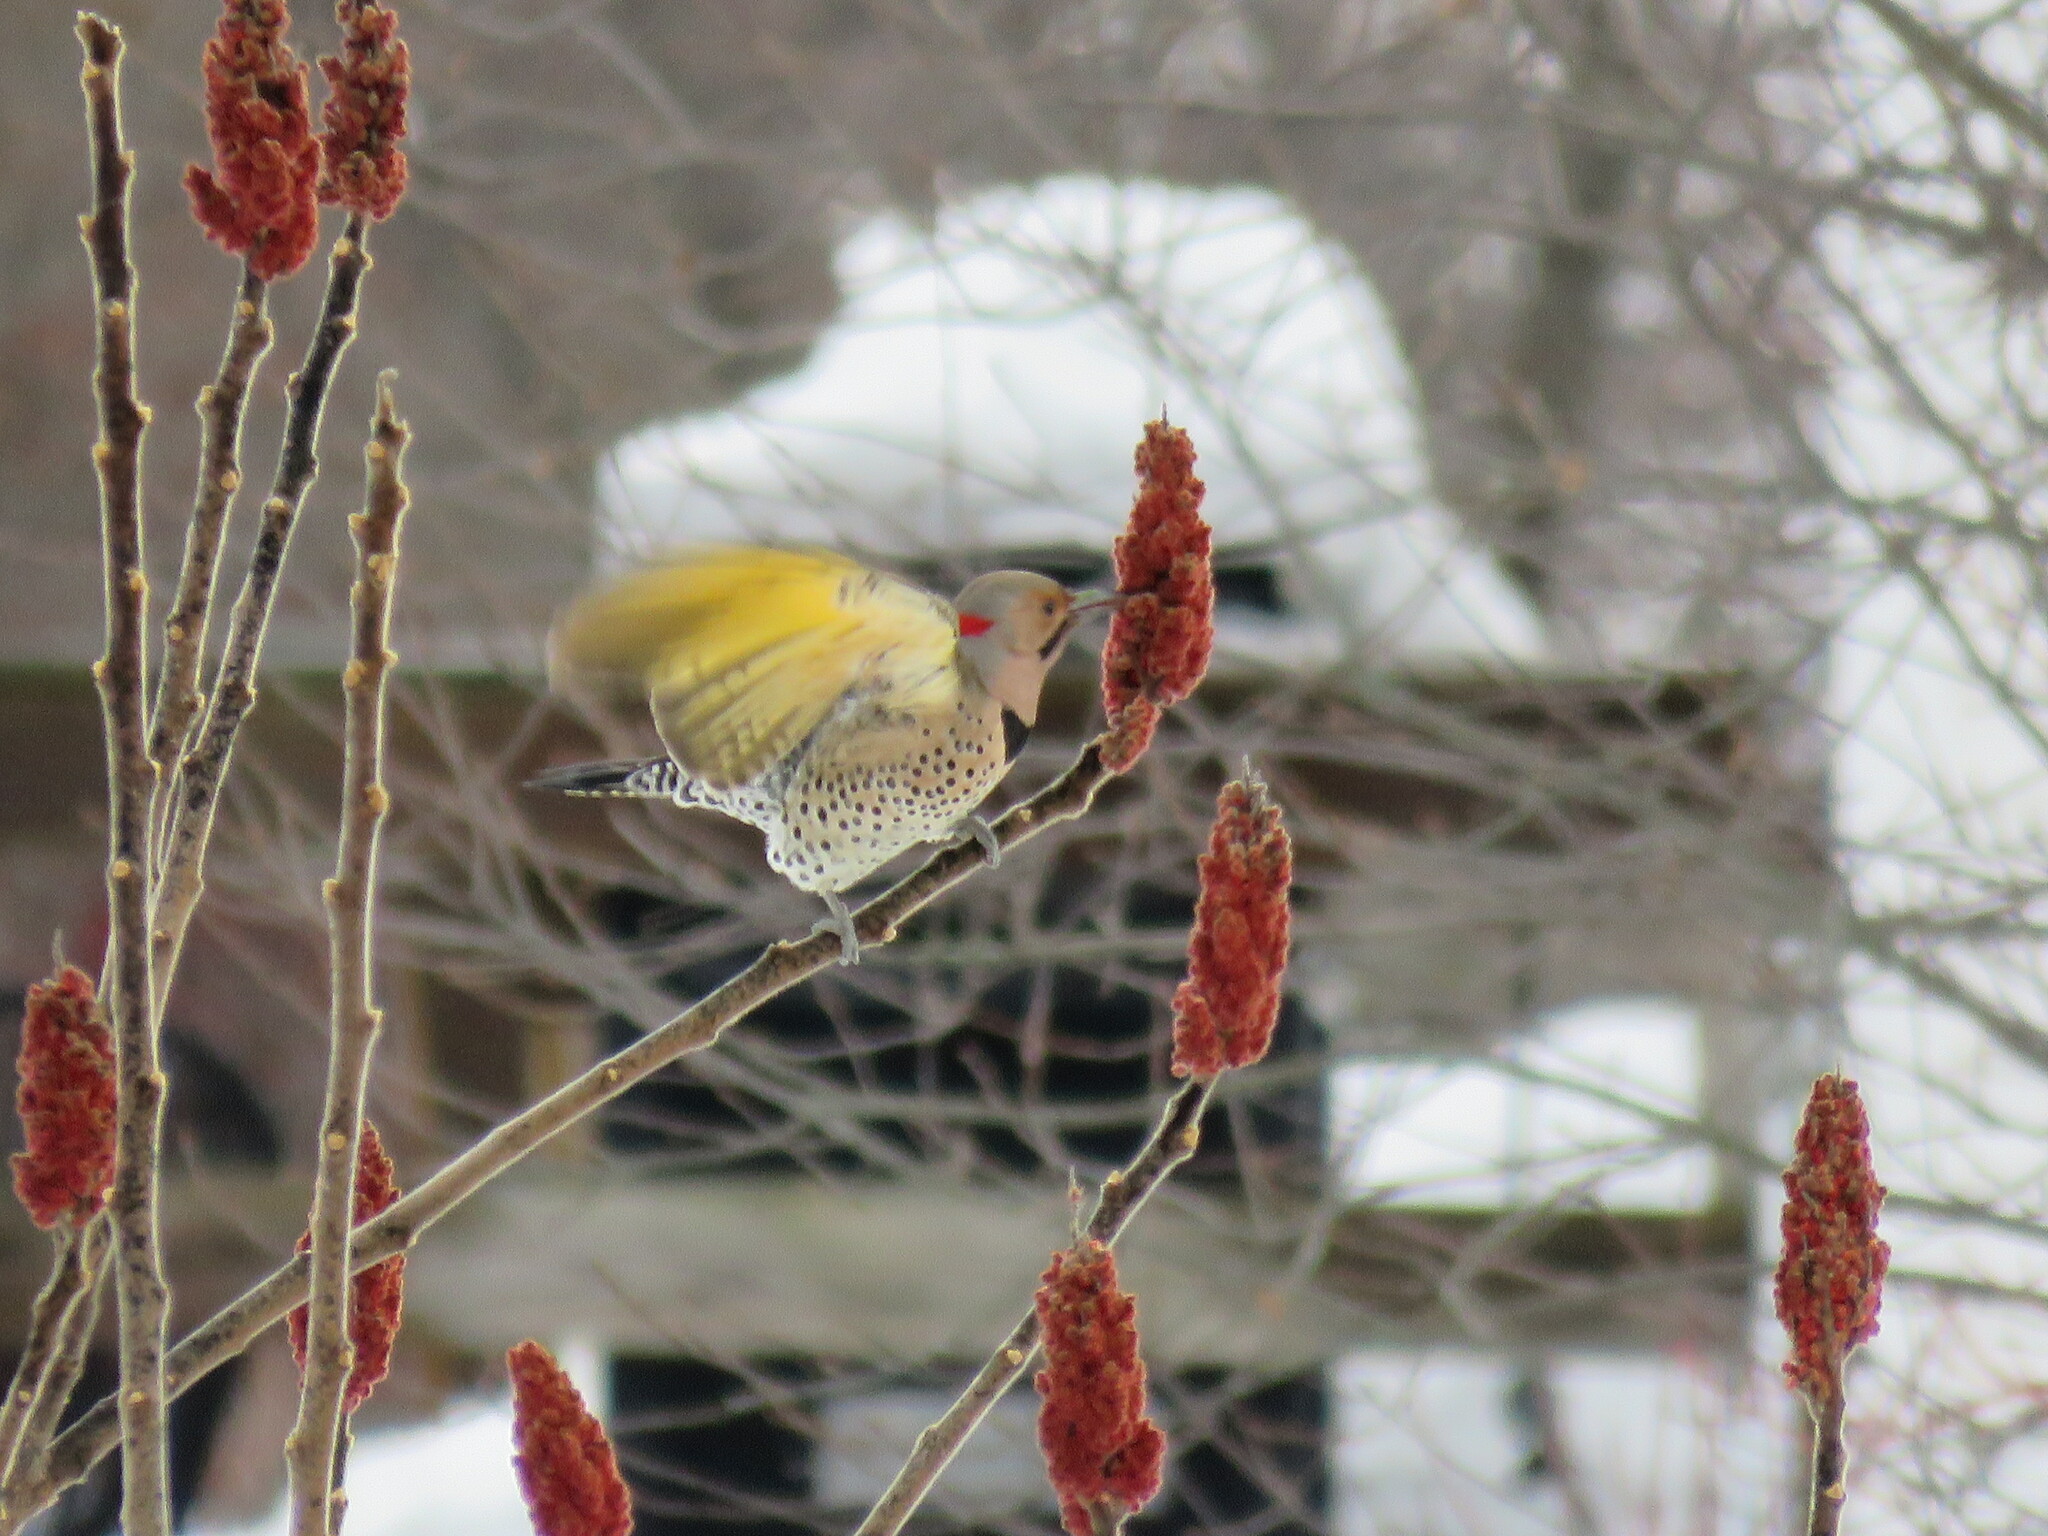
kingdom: Animalia
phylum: Chordata
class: Aves
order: Piciformes
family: Picidae
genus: Colaptes
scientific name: Colaptes auratus
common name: Northern flicker
